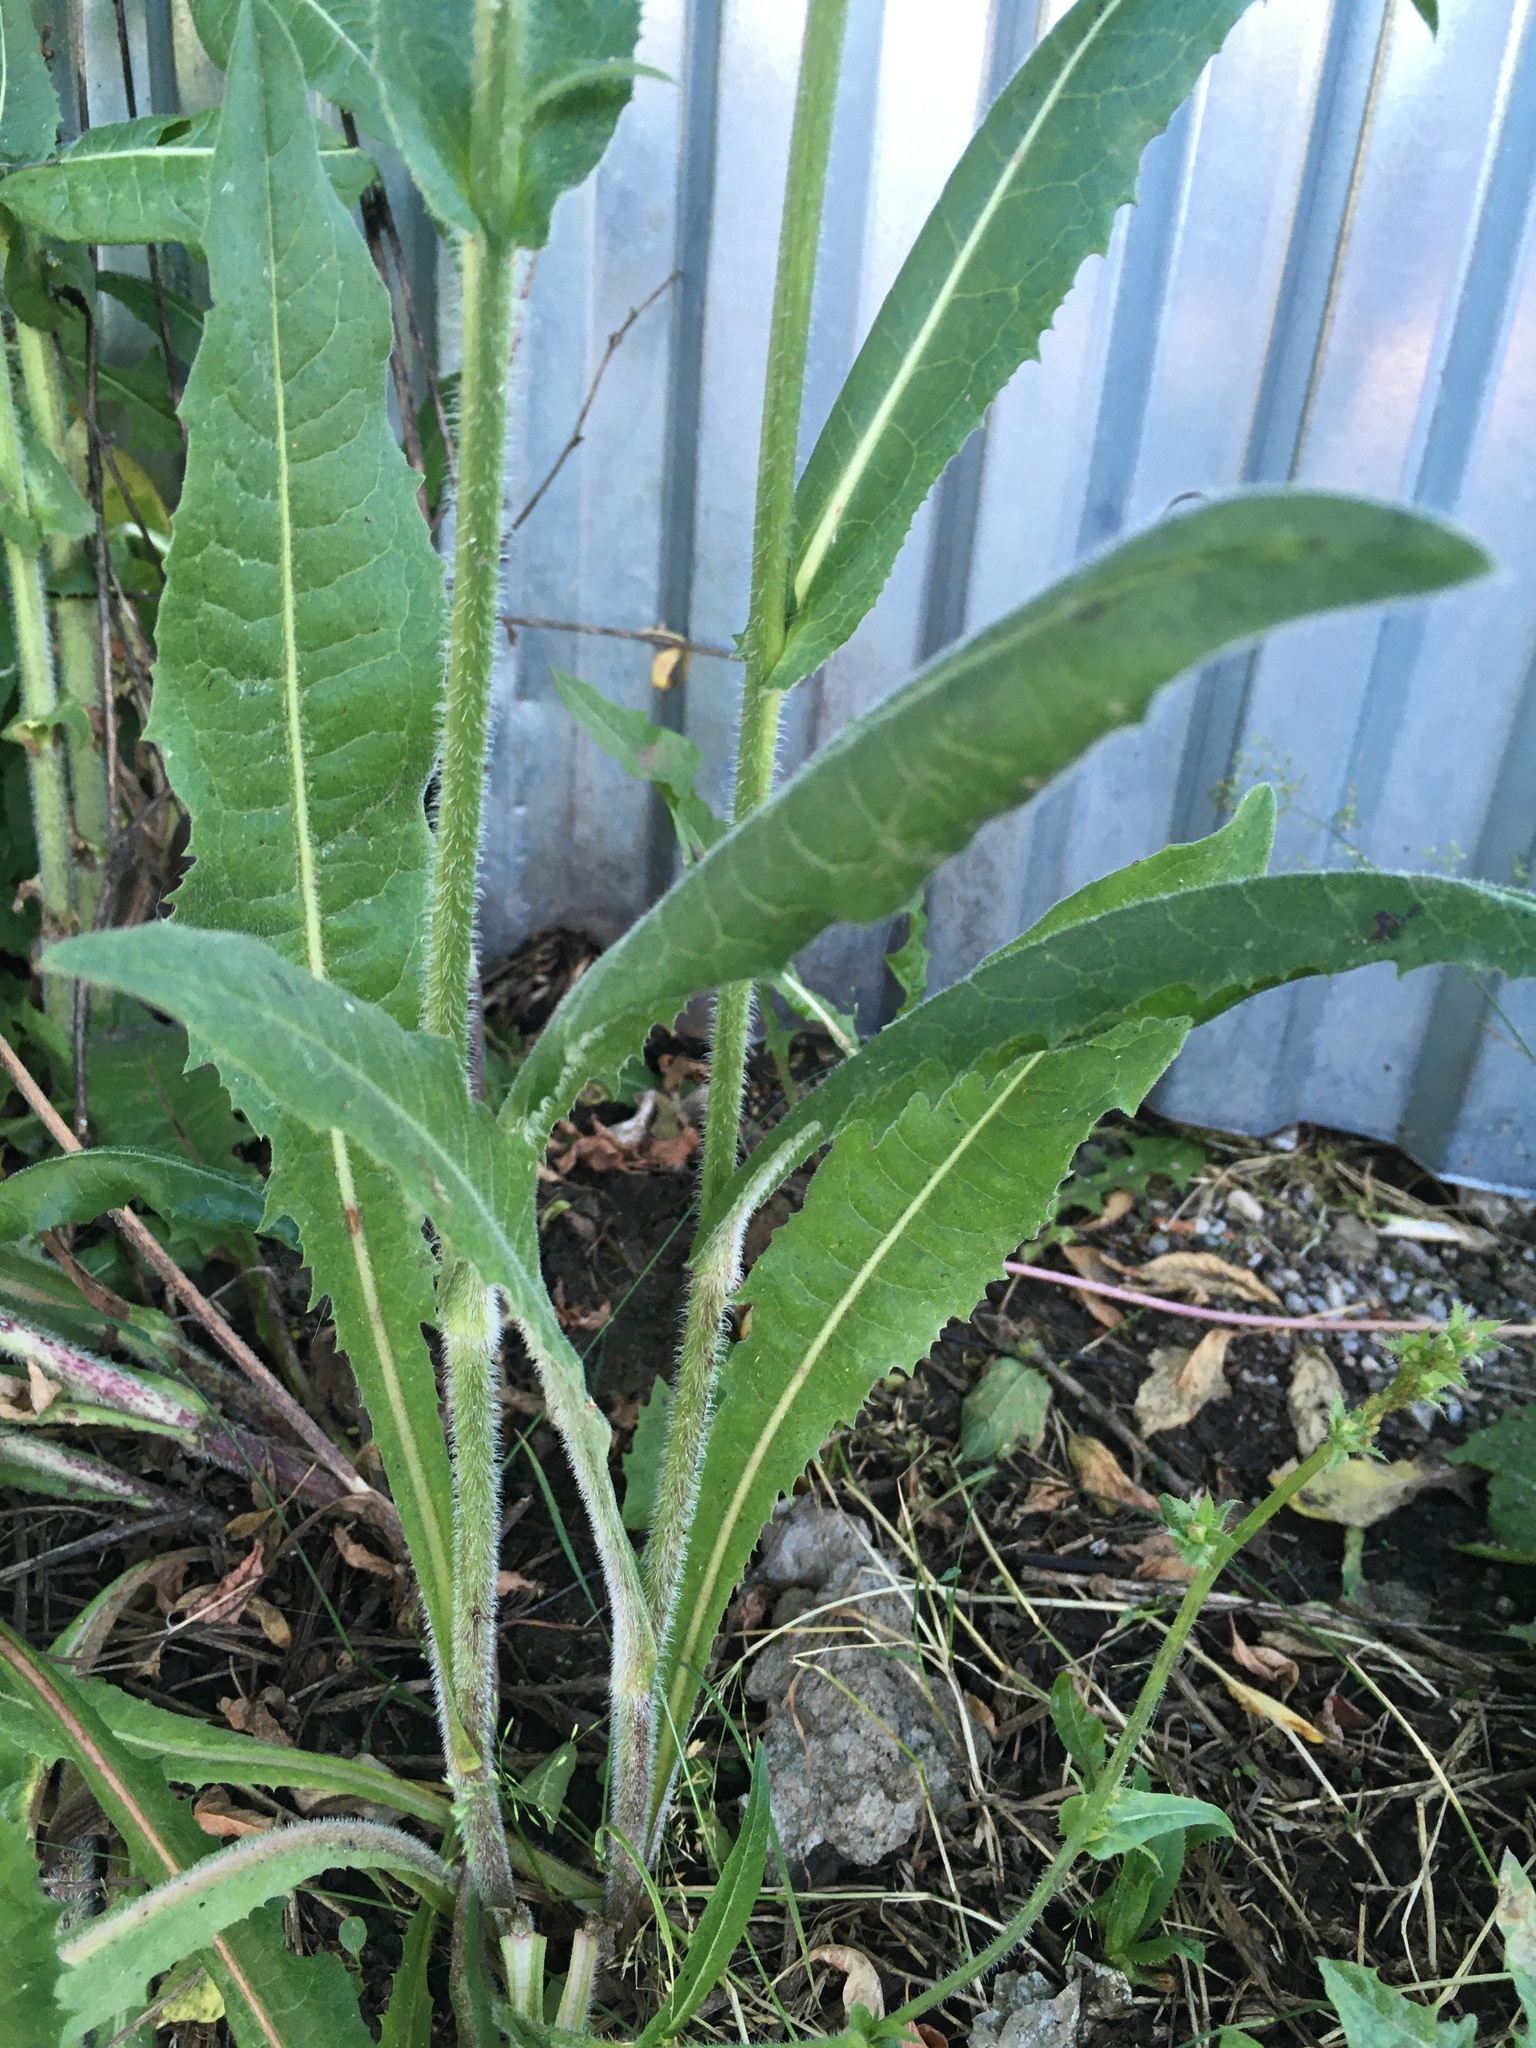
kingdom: Plantae
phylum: Tracheophyta
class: Magnoliopsida
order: Asterales
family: Asteraceae
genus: Cichorium
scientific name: Cichorium intybus
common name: Chicory
